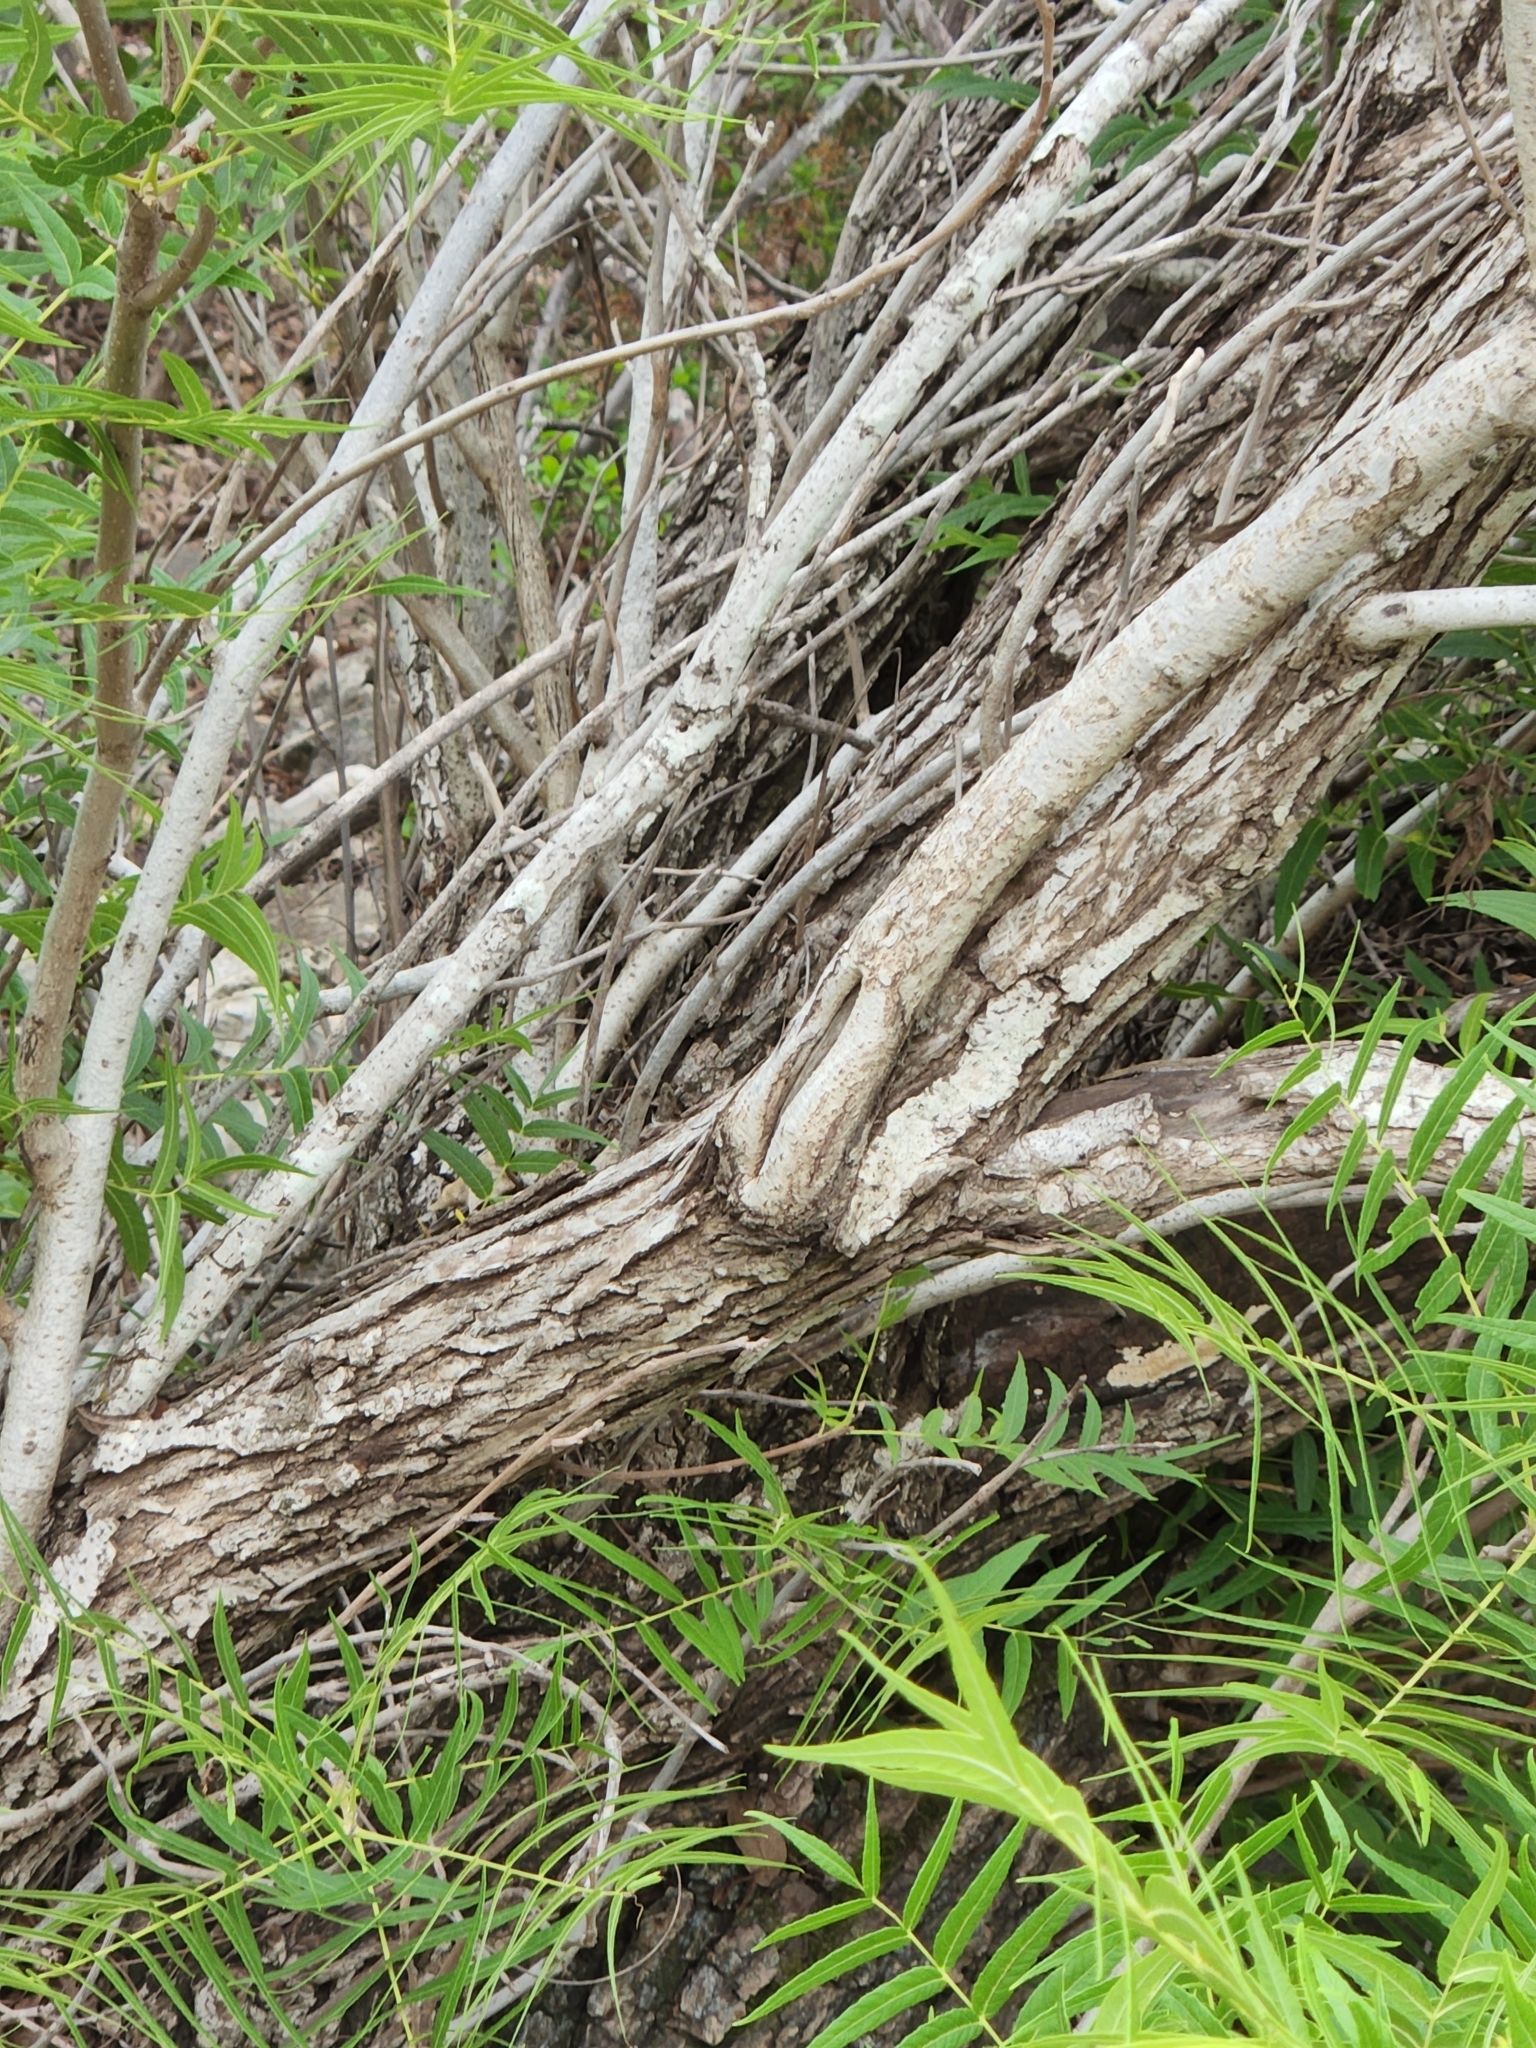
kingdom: Plantae
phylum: Tracheophyta
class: Magnoliopsida
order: Fagales
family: Juglandaceae
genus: Juglans
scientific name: Juglans microcarpa
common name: Texas walnut
